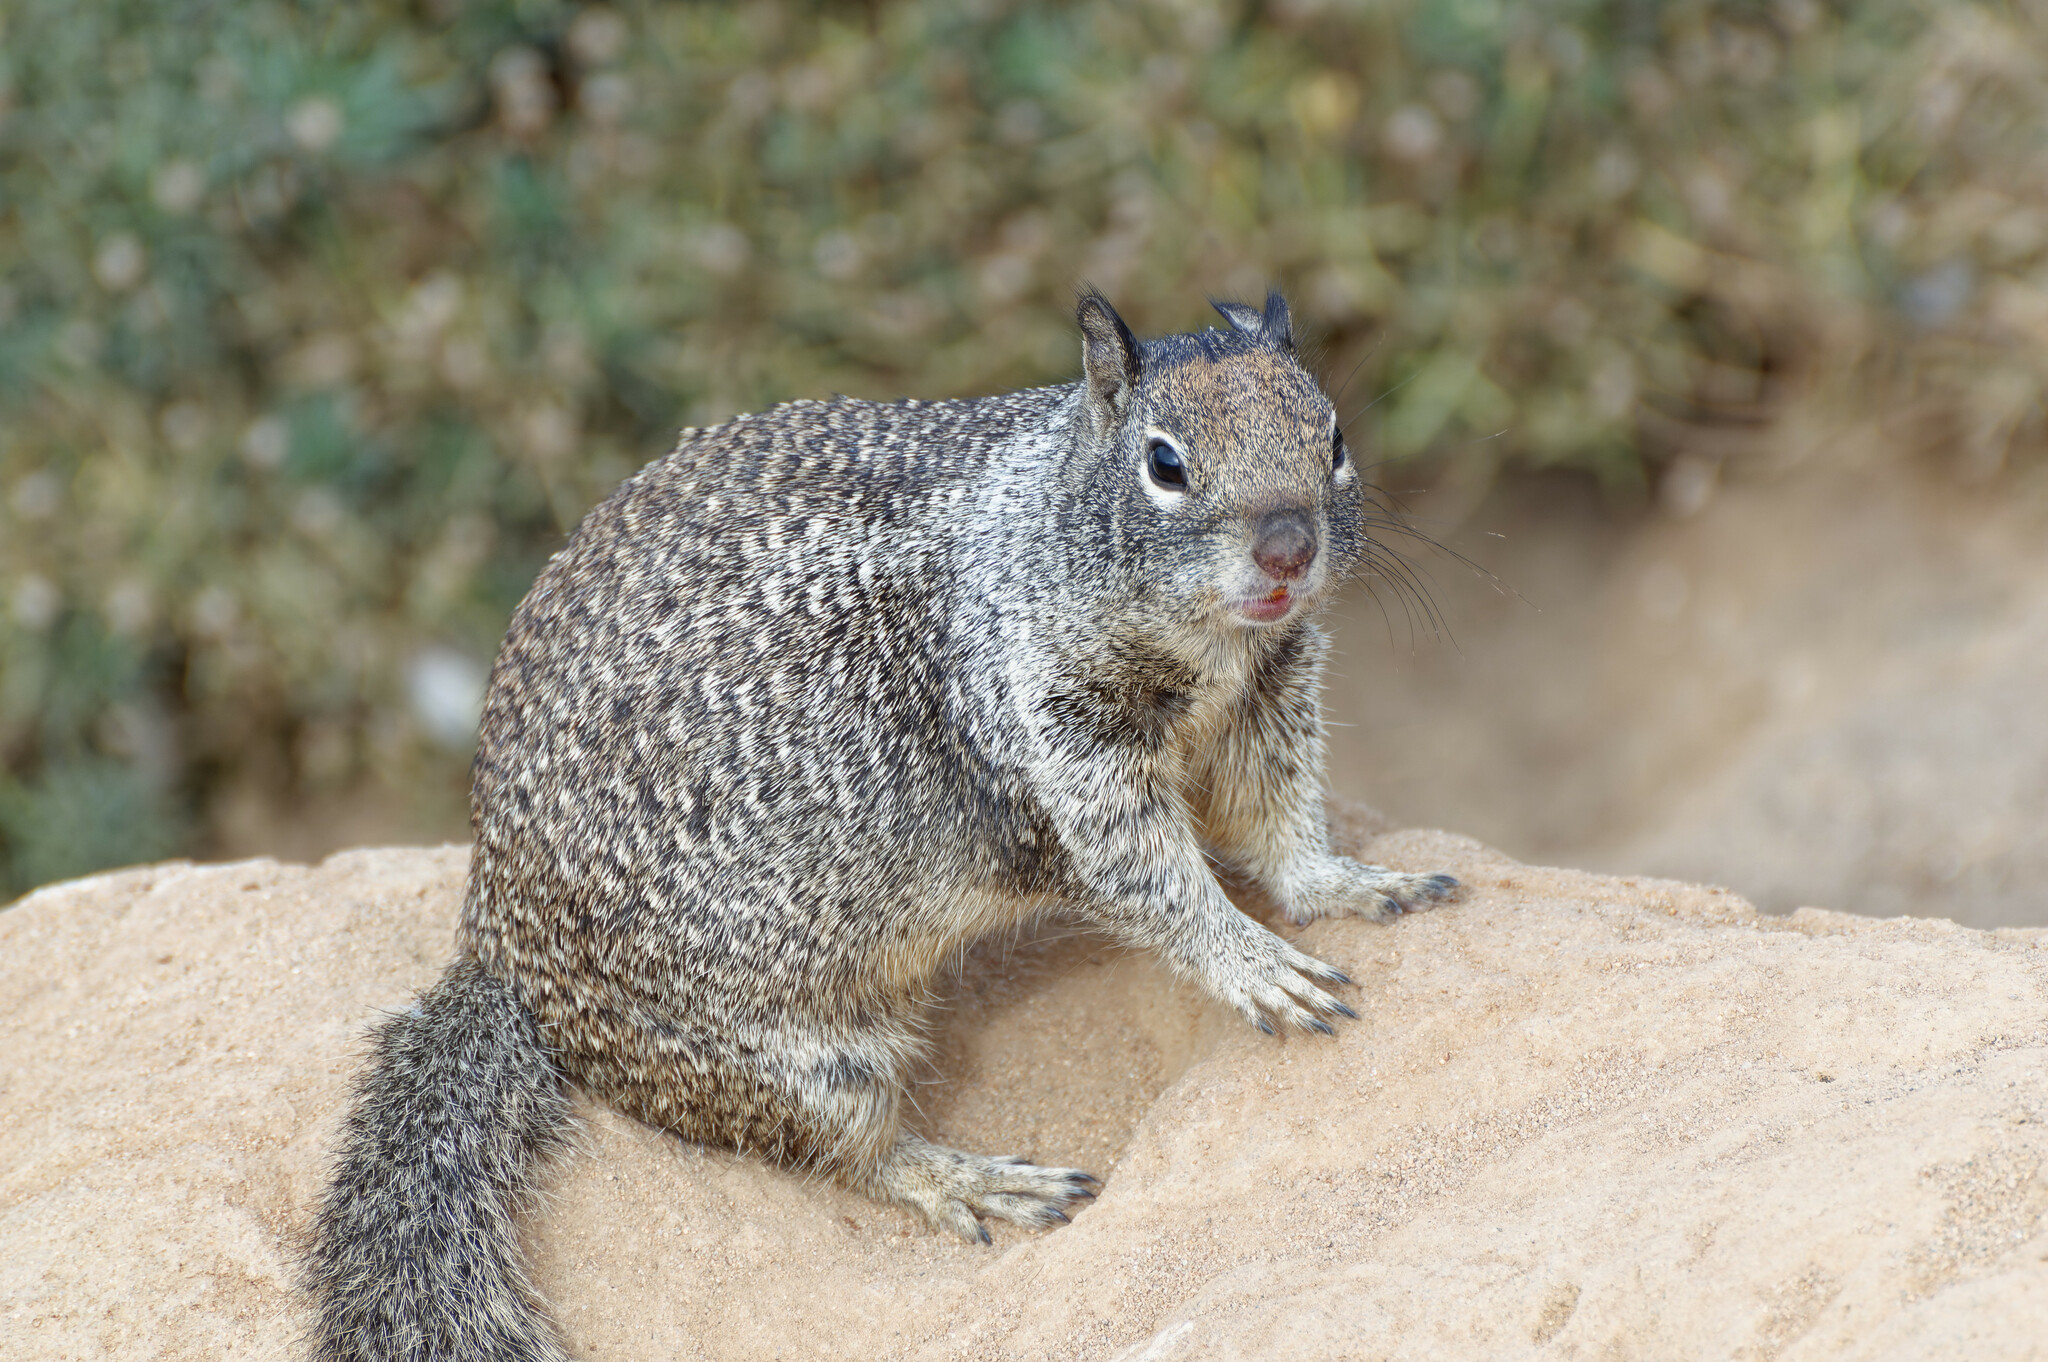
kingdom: Animalia
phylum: Chordata
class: Mammalia
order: Rodentia
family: Sciuridae
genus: Otospermophilus
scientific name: Otospermophilus beecheyi
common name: California ground squirrel
